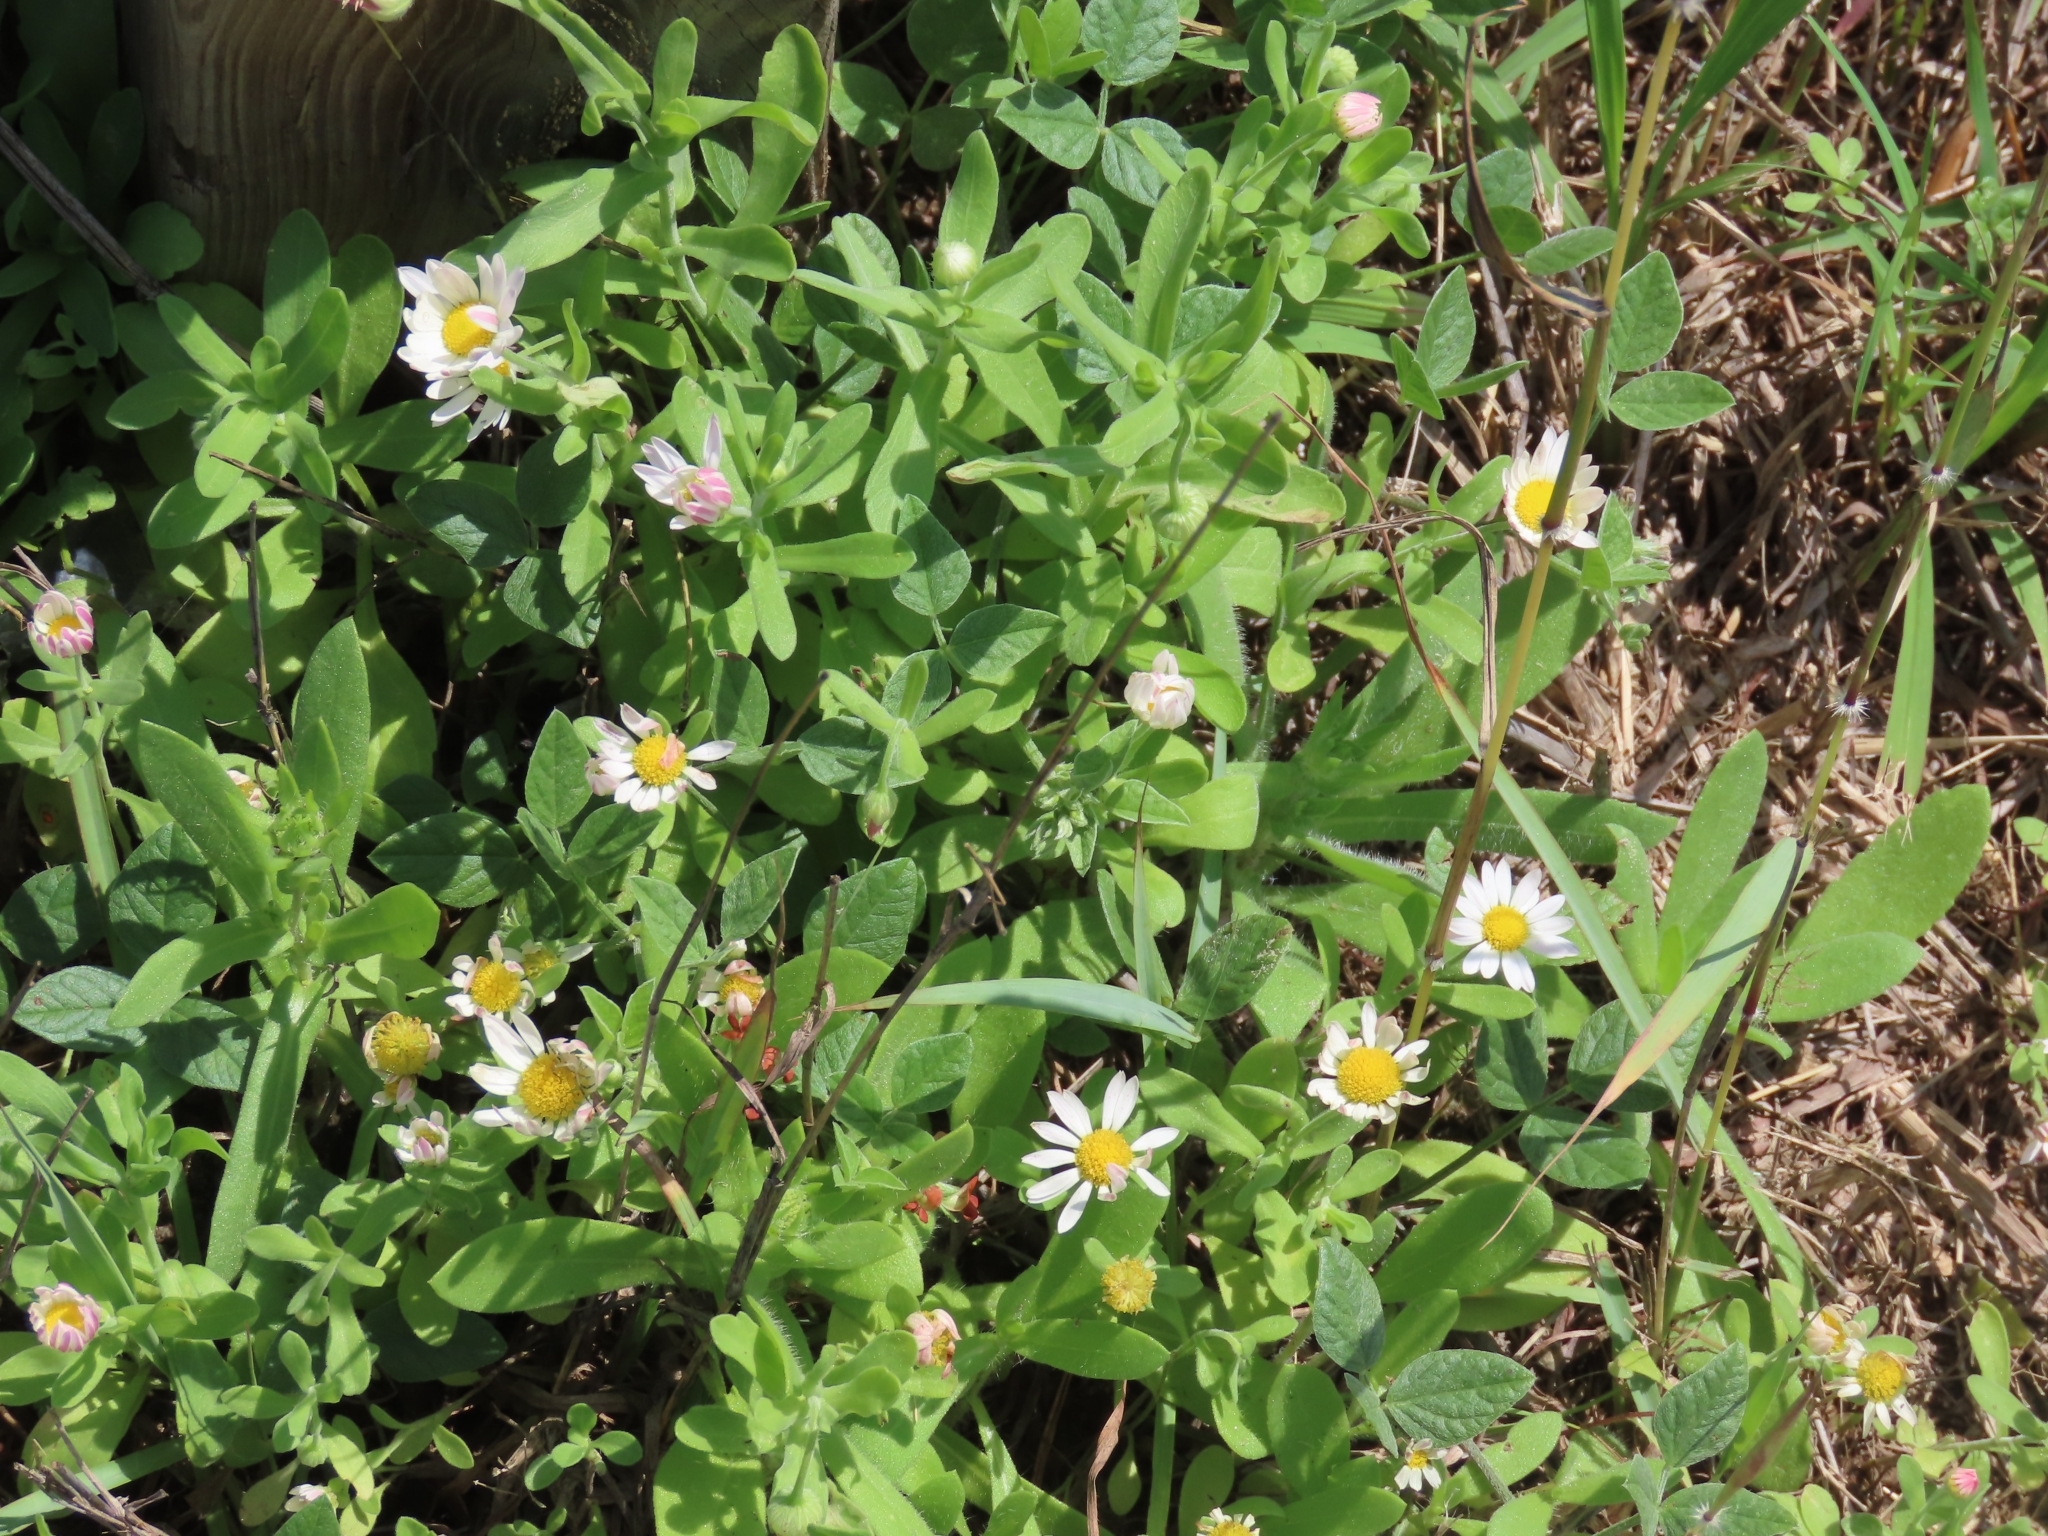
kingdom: Plantae
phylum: Tracheophyta
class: Magnoliopsida
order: Asterales
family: Asteraceae
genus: Aphanostephus
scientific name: Aphanostephus skirrhobasis
